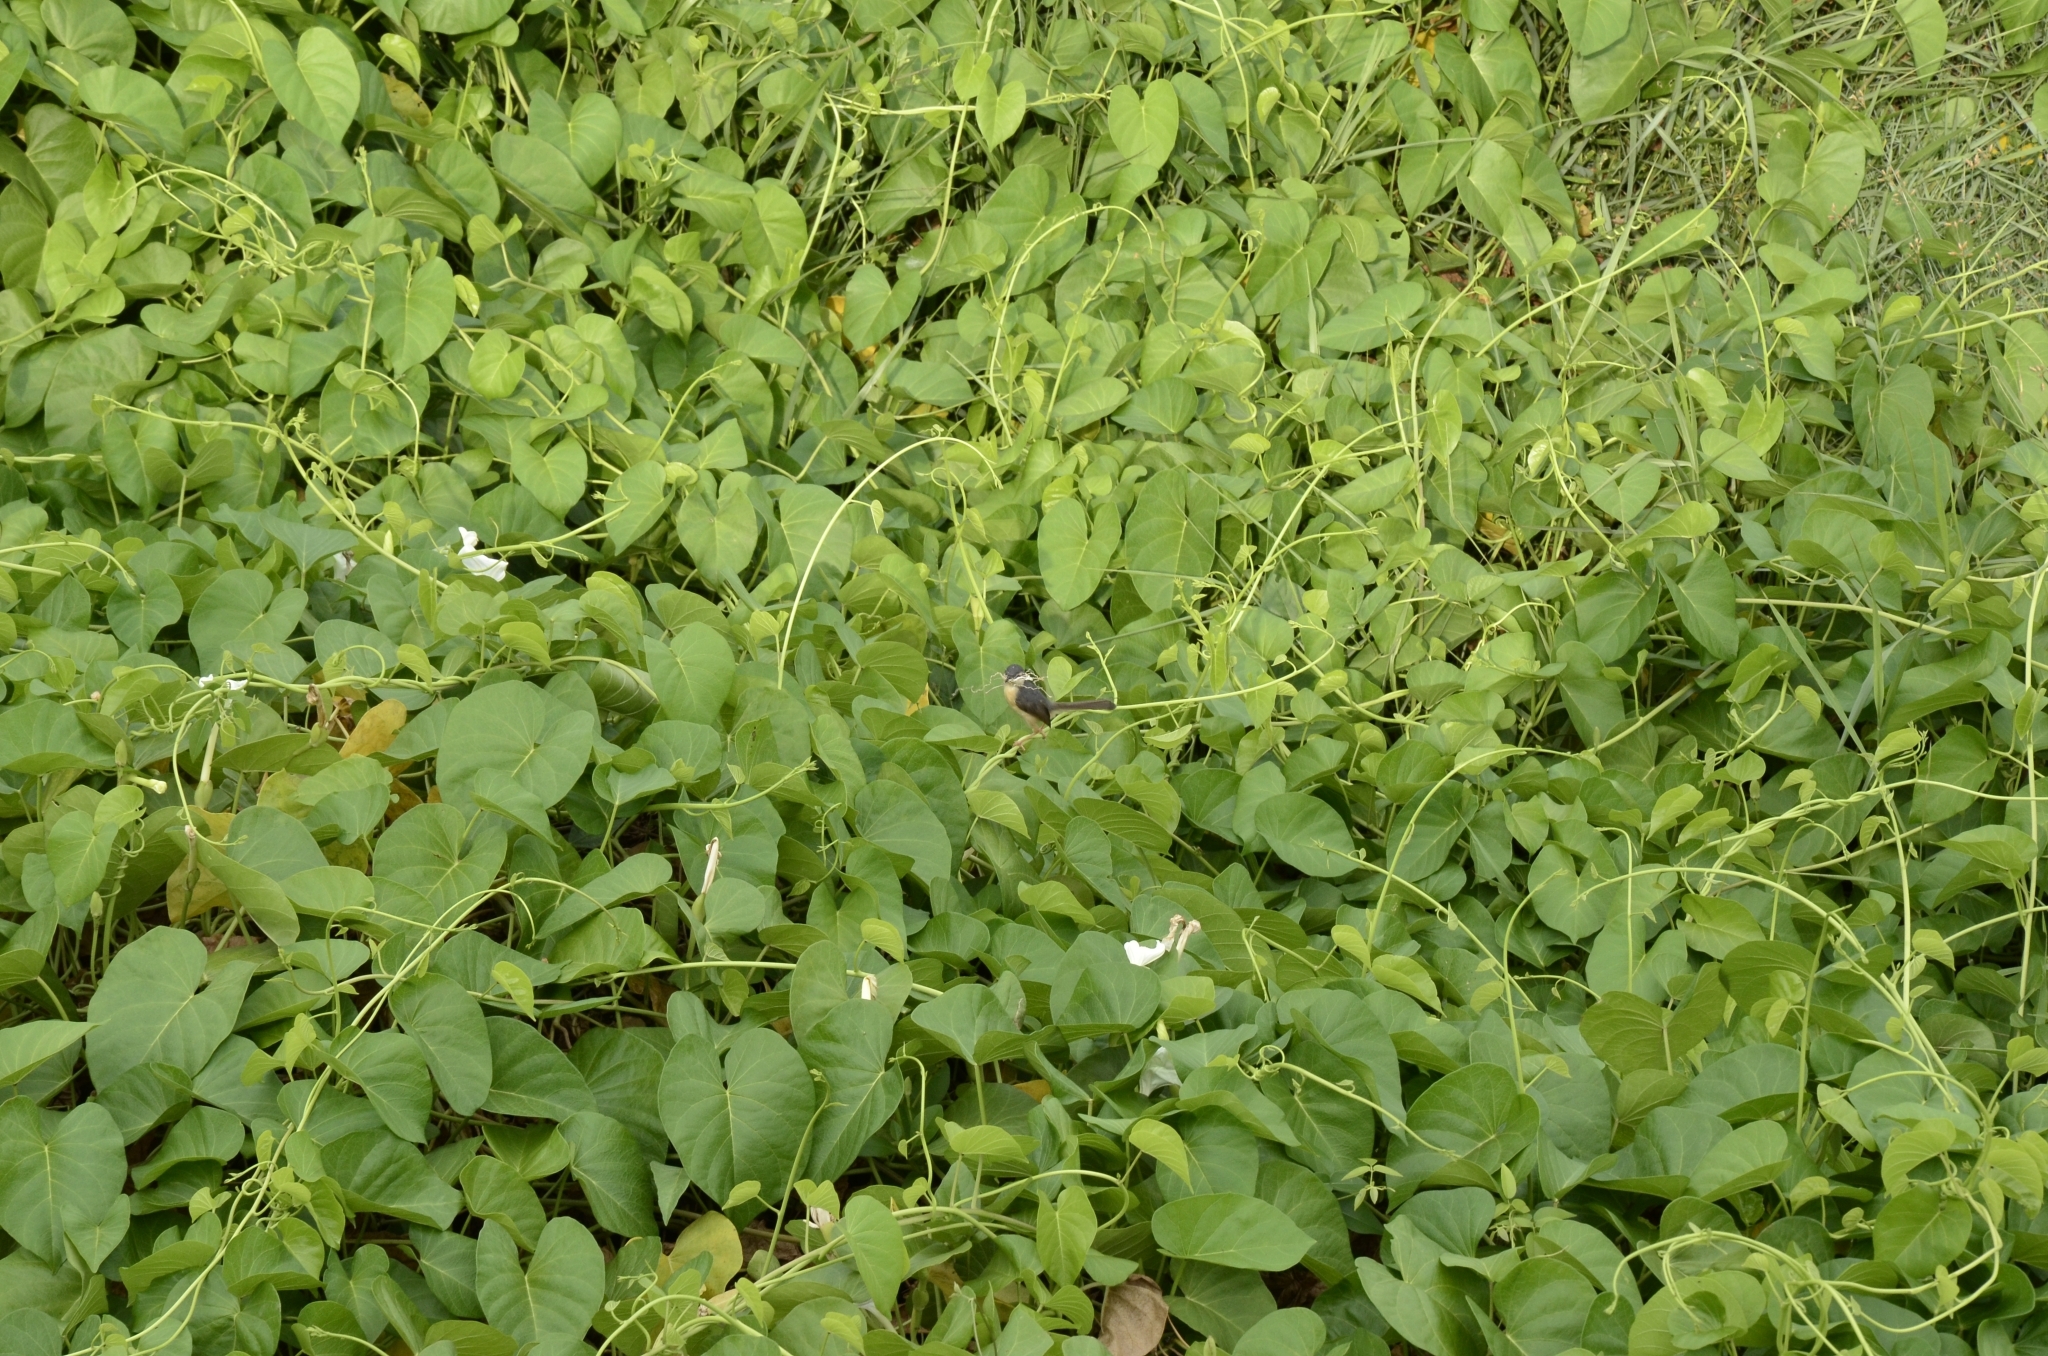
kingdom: Plantae
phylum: Tracheophyta
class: Magnoliopsida
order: Solanales
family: Convolvulaceae
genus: Ipomoea
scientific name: Ipomoea violacea
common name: Beach moonflower
